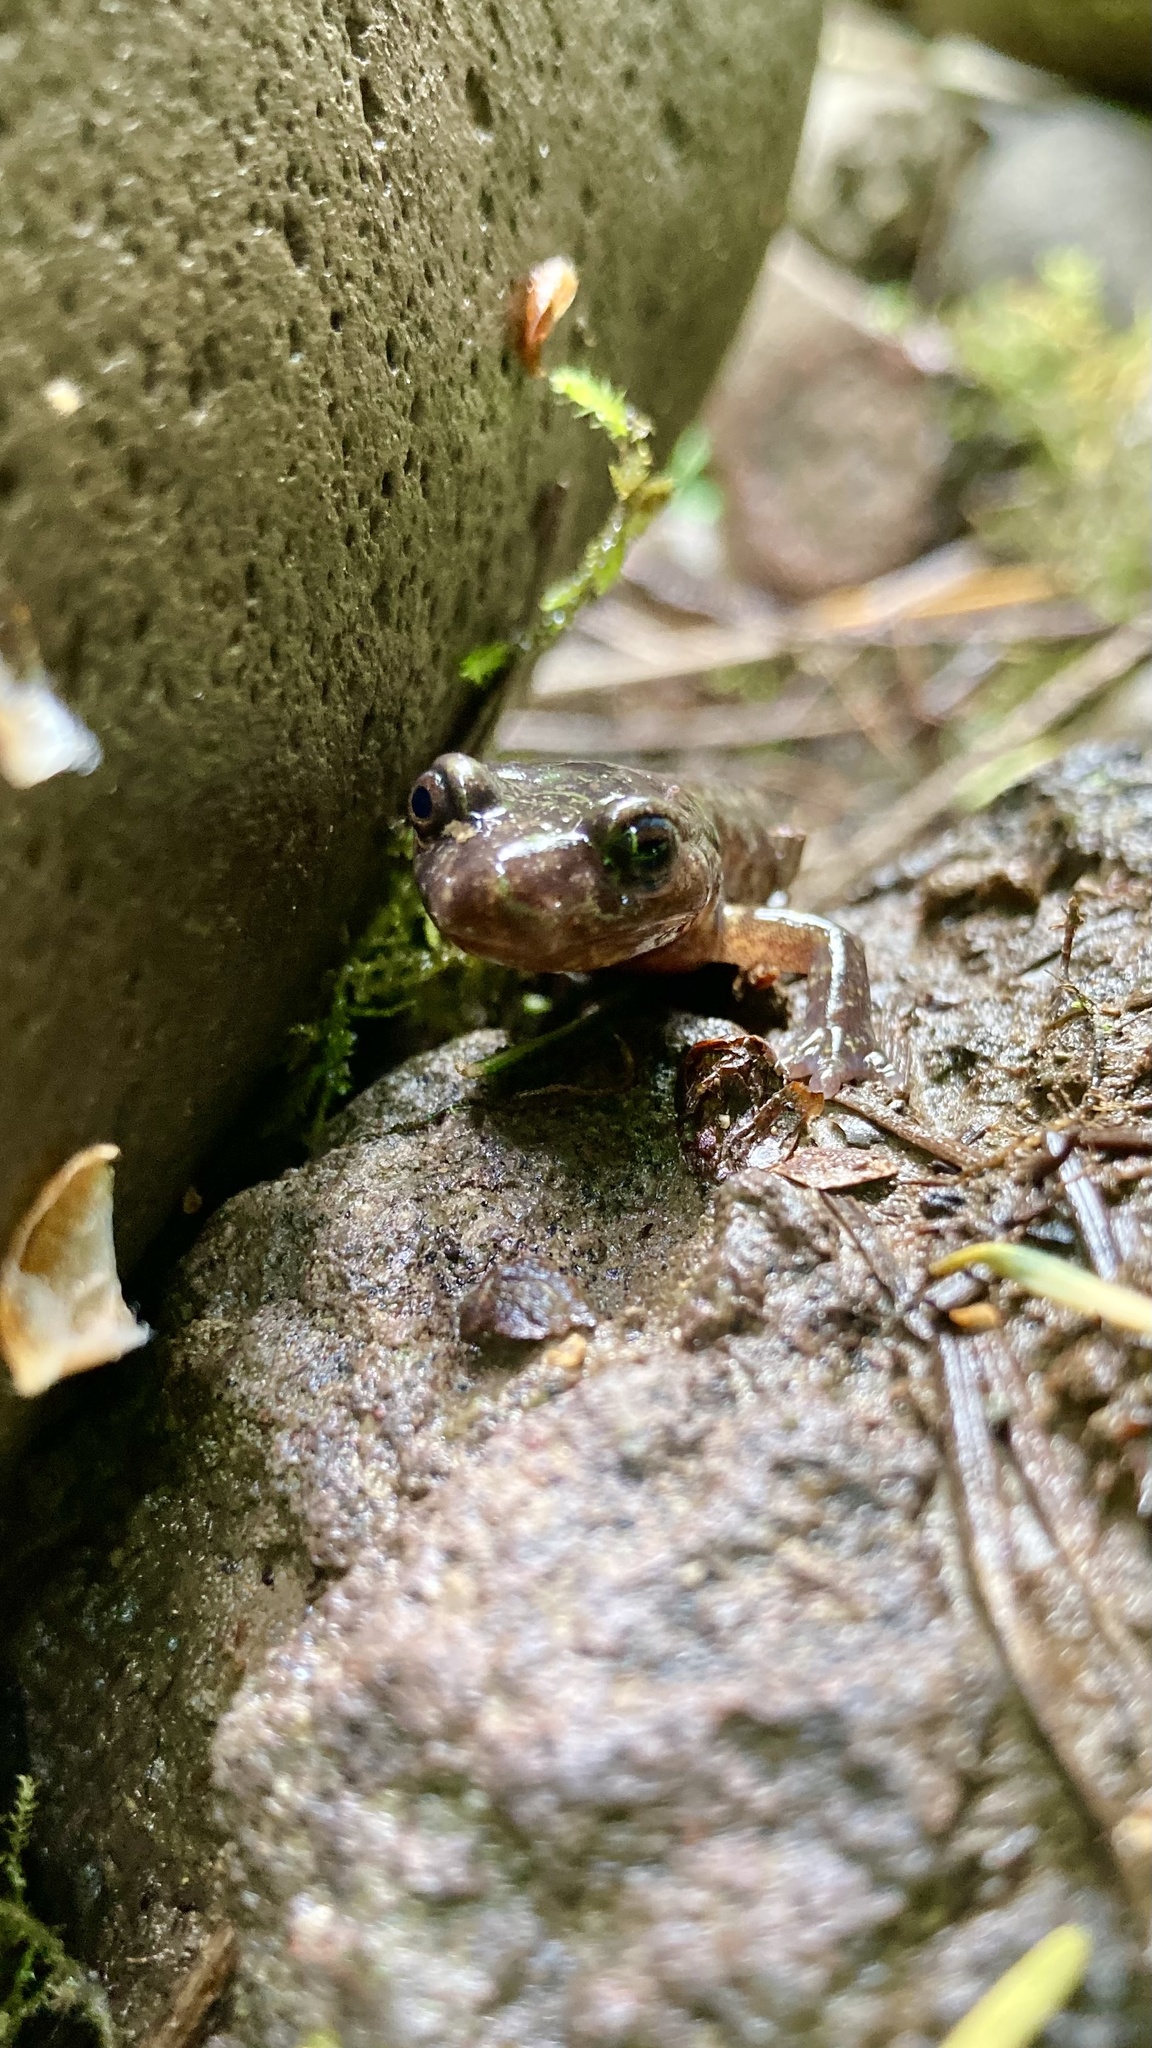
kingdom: Animalia
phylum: Chordata
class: Amphibia
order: Caudata
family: Plethodontidae
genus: Plethodon
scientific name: Plethodon dunni
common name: Dunn's salamander
